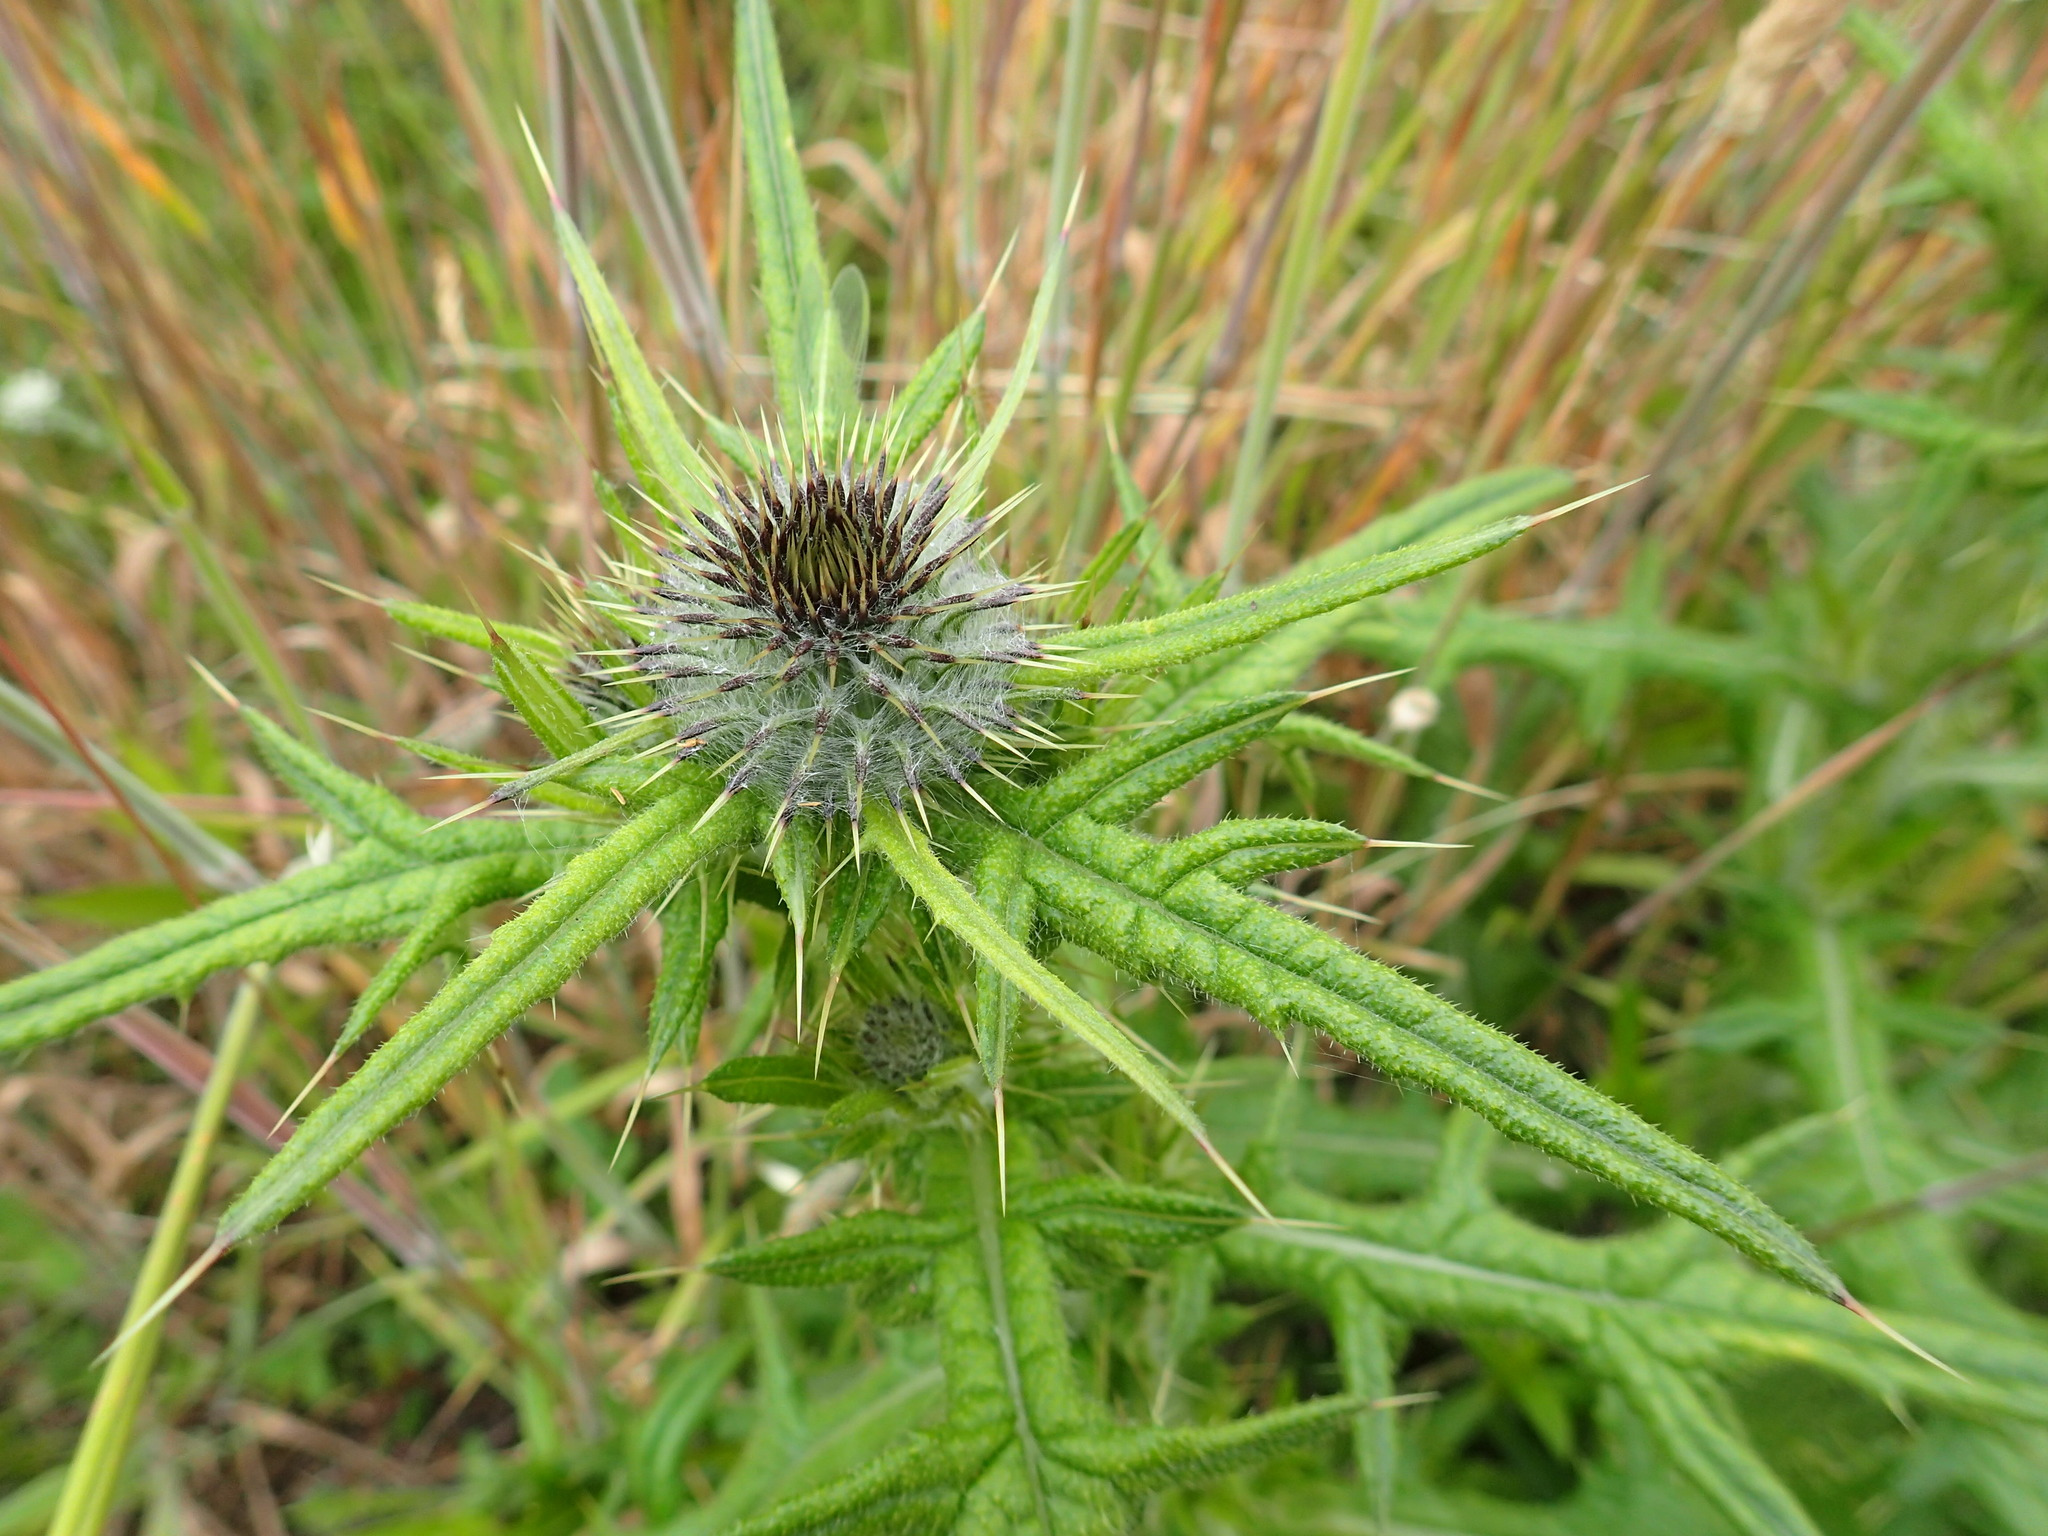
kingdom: Plantae
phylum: Tracheophyta
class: Magnoliopsida
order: Asterales
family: Asteraceae
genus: Cirsium
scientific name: Cirsium vulgare
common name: Bull thistle
